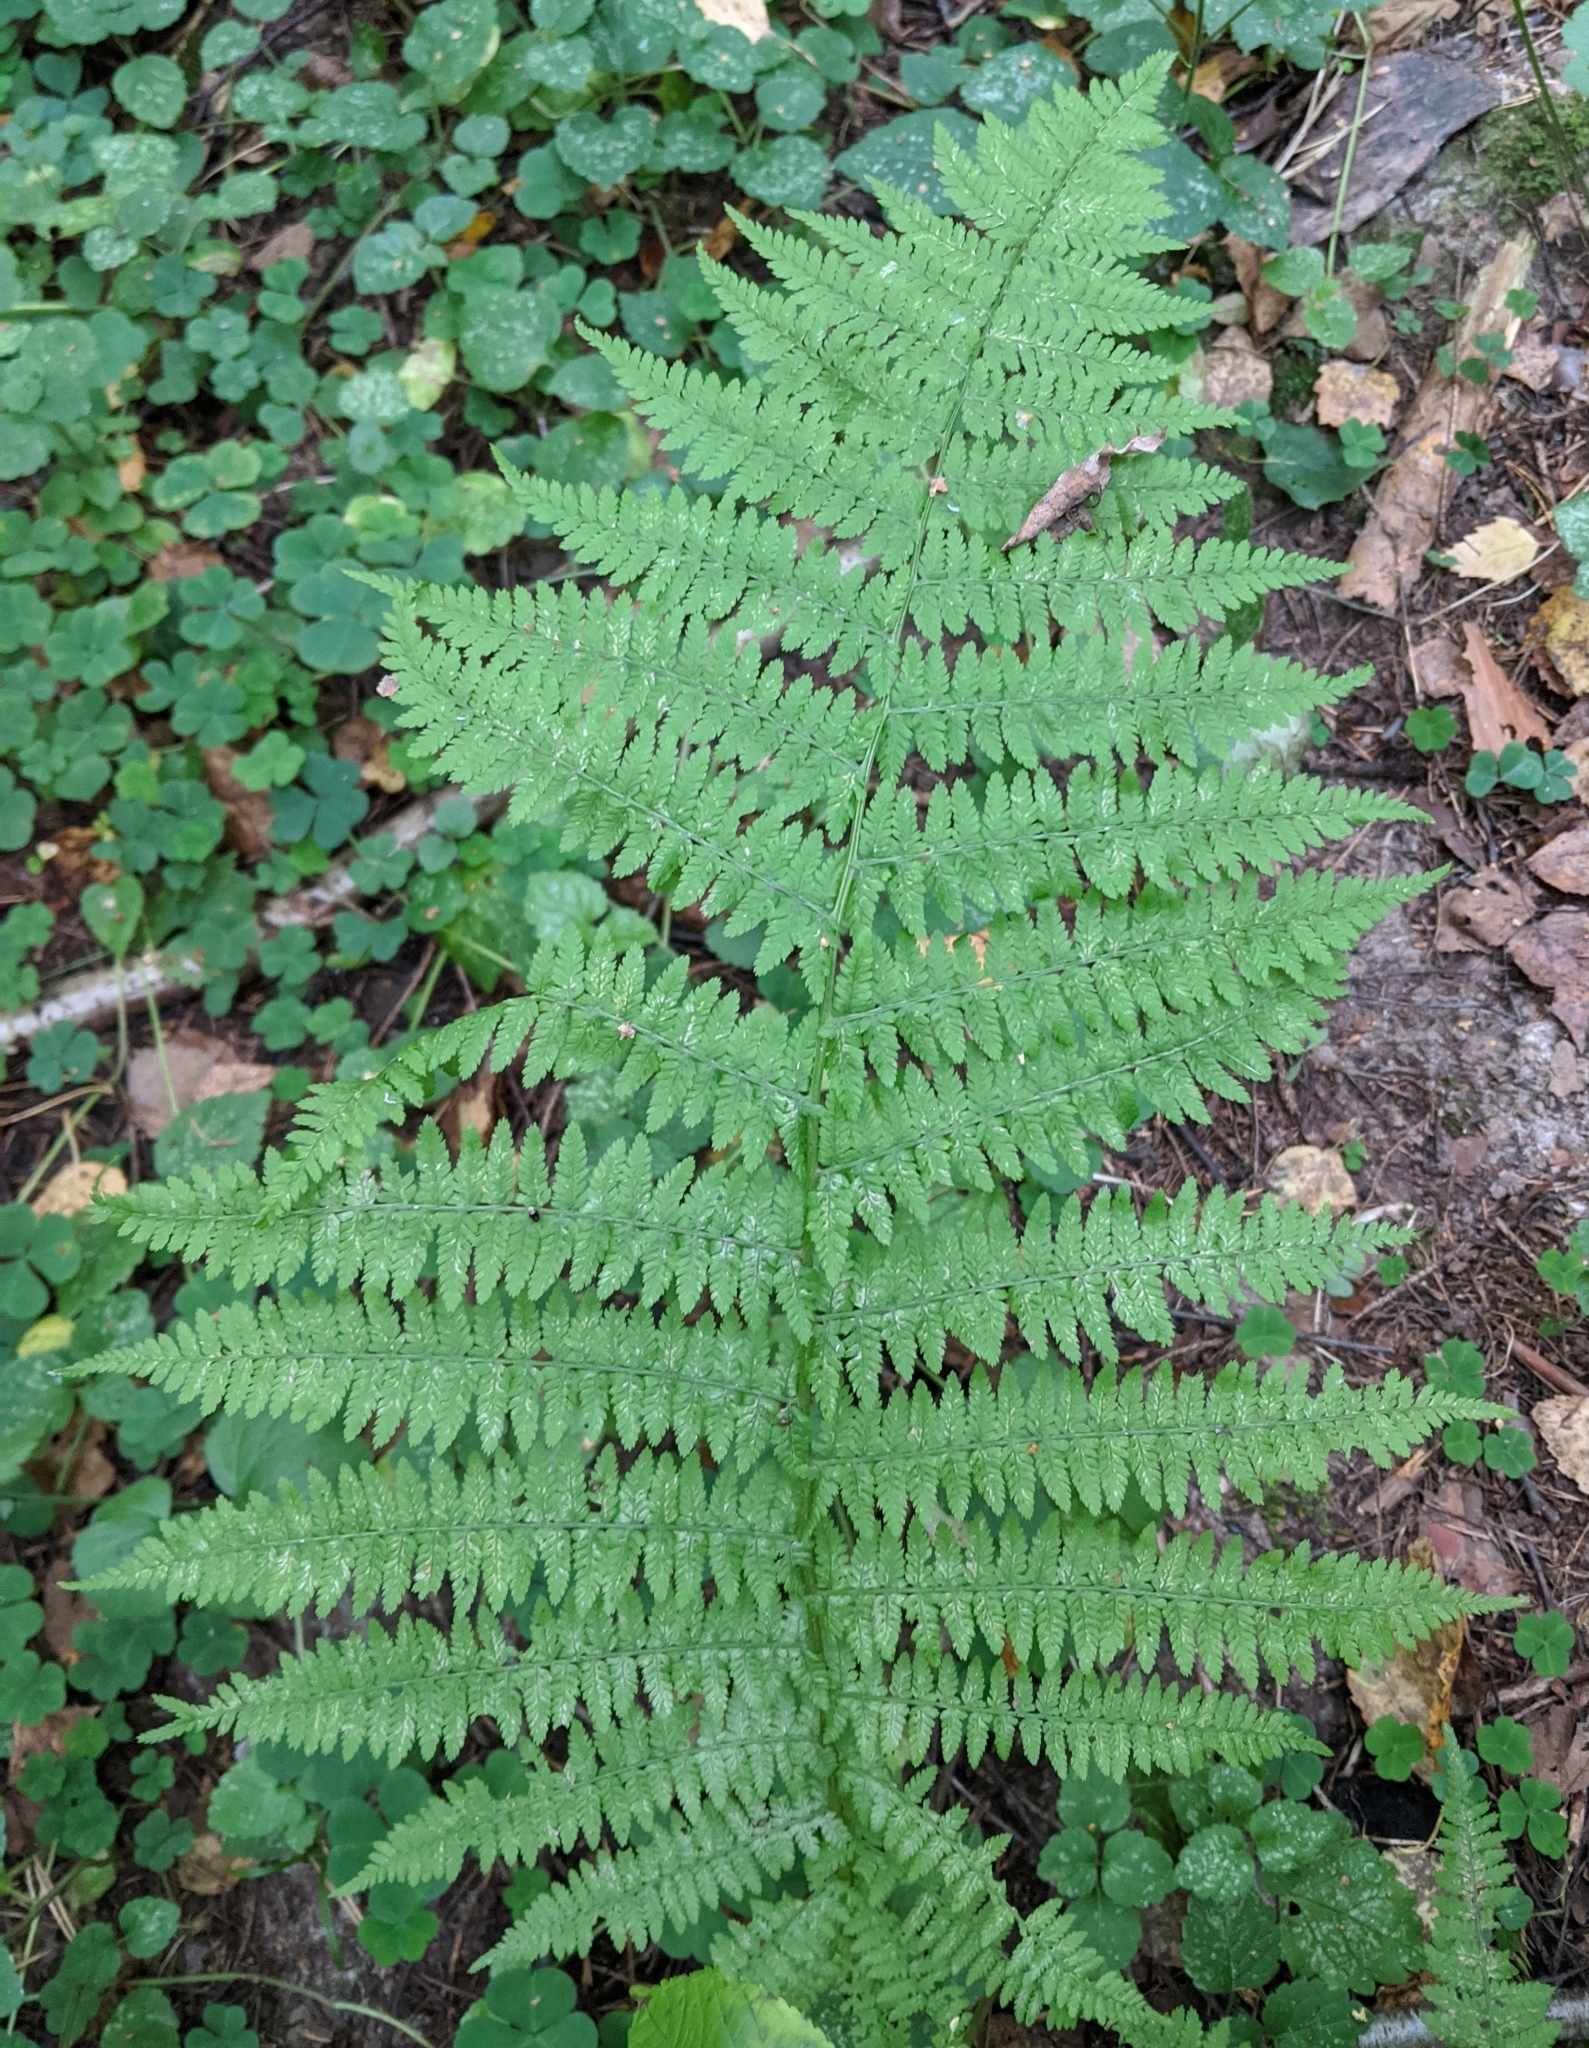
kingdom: Plantae
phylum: Tracheophyta
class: Polypodiopsida
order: Polypodiales
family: Athyriaceae
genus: Athyrium
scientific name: Athyrium filix-femina
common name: Lady fern
